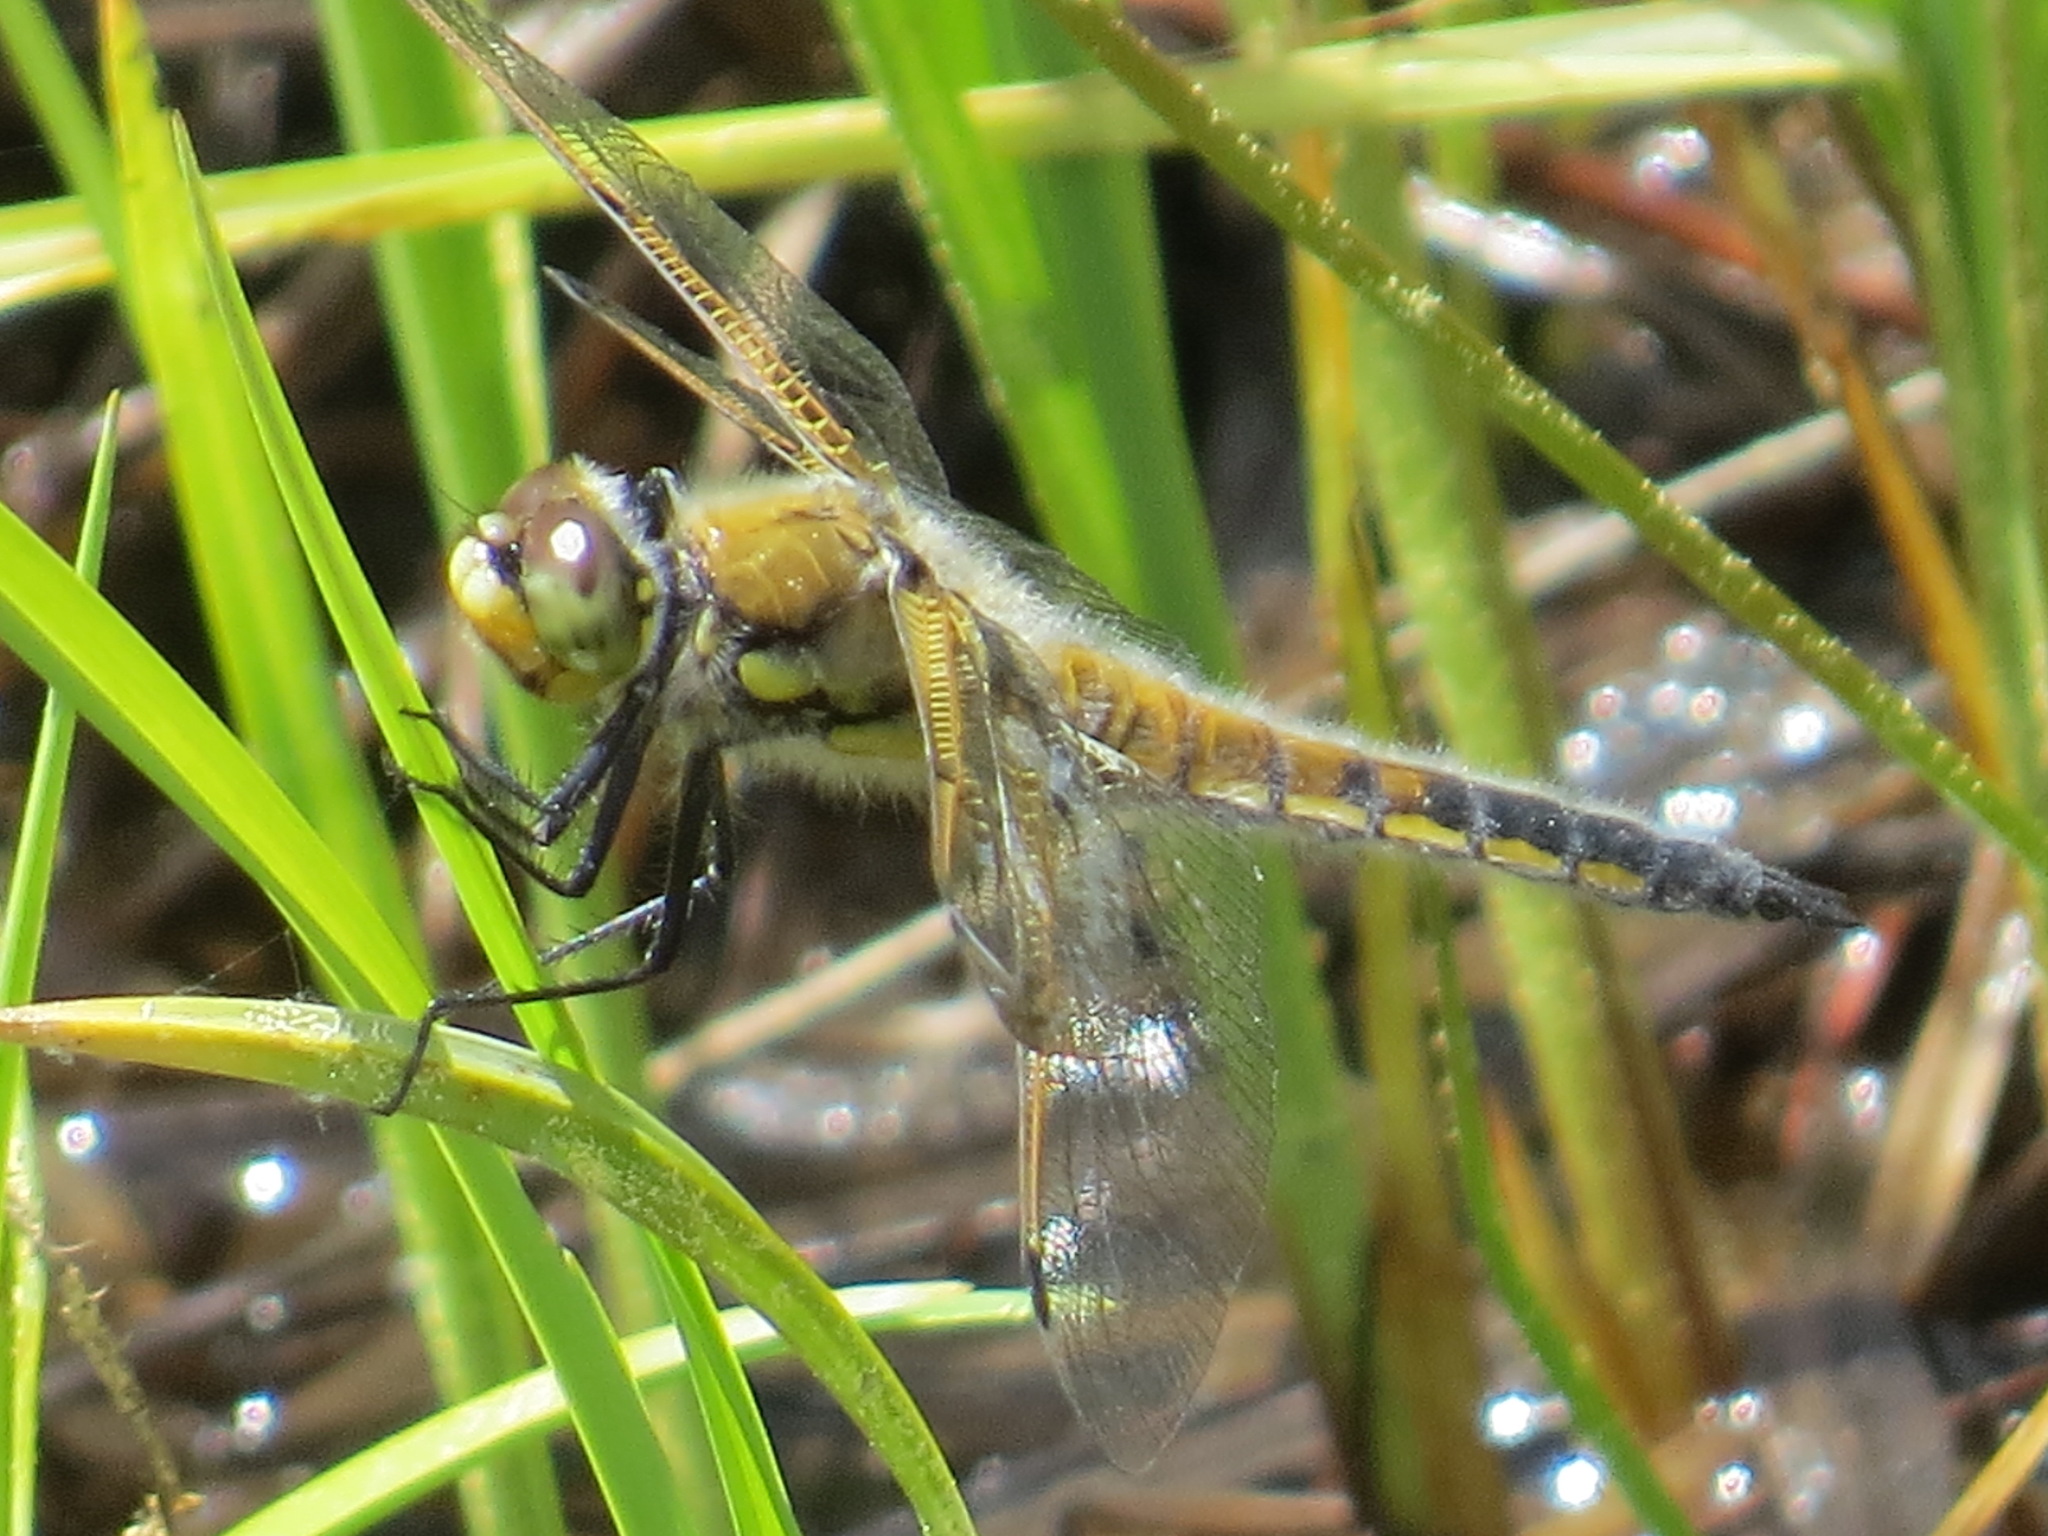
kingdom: Animalia
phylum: Arthropoda
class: Insecta
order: Odonata
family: Libellulidae
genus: Libellula
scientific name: Libellula quadrimaculata
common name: Four-spotted chaser
